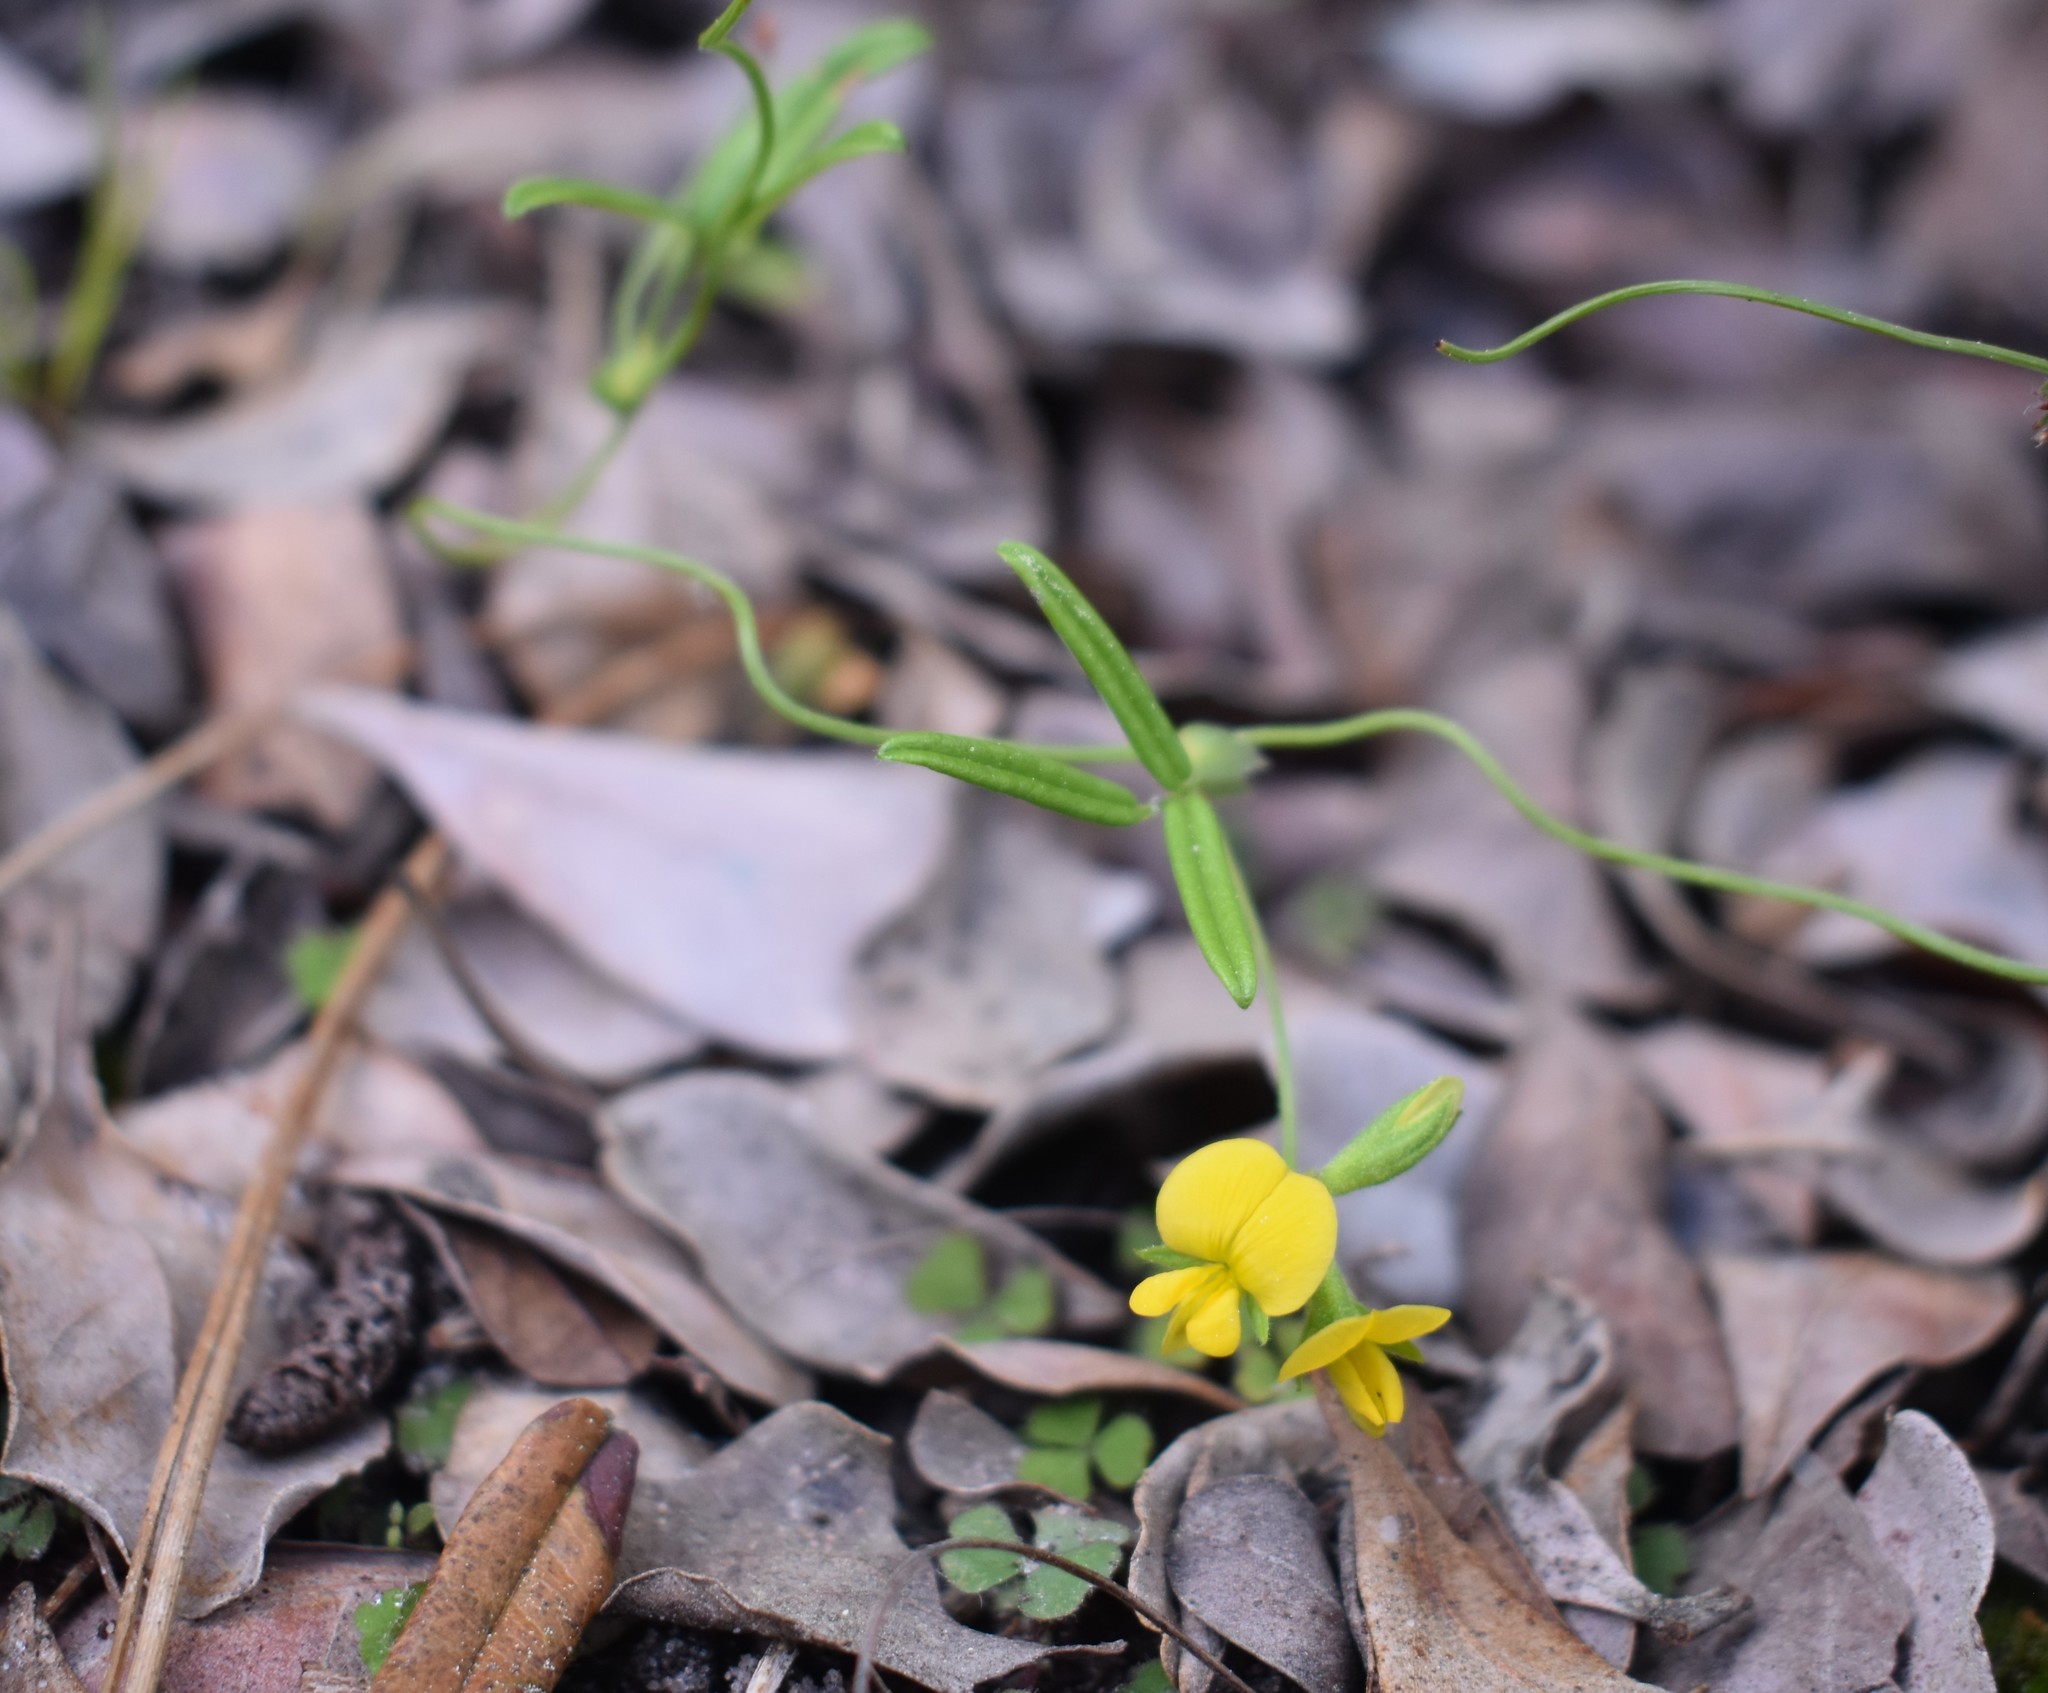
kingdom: Plantae
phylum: Tracheophyta
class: Magnoliopsida
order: Fabales
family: Fabaceae
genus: Rhynchosia
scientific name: Rhynchosia leucoscias
